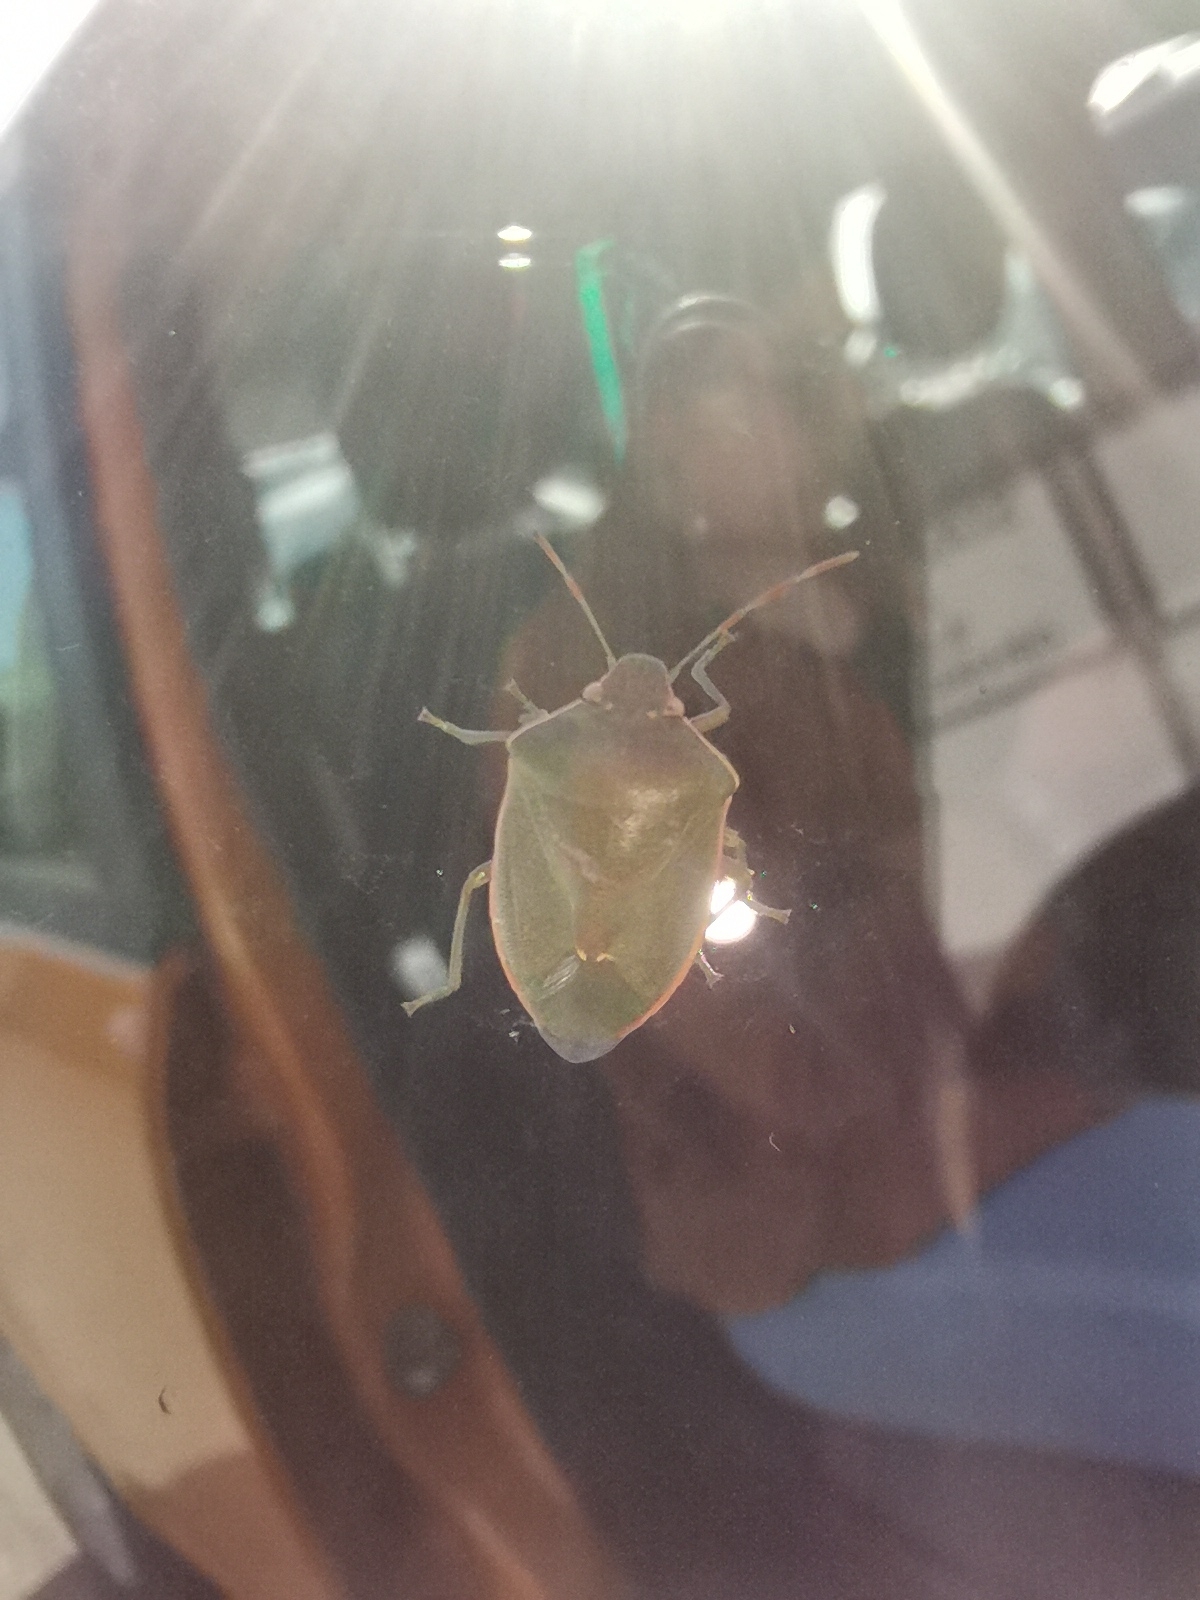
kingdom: Animalia
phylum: Arthropoda
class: Insecta
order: Hemiptera
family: Pentatomidae
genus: Acrosternum
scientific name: Acrosternum heegeri
